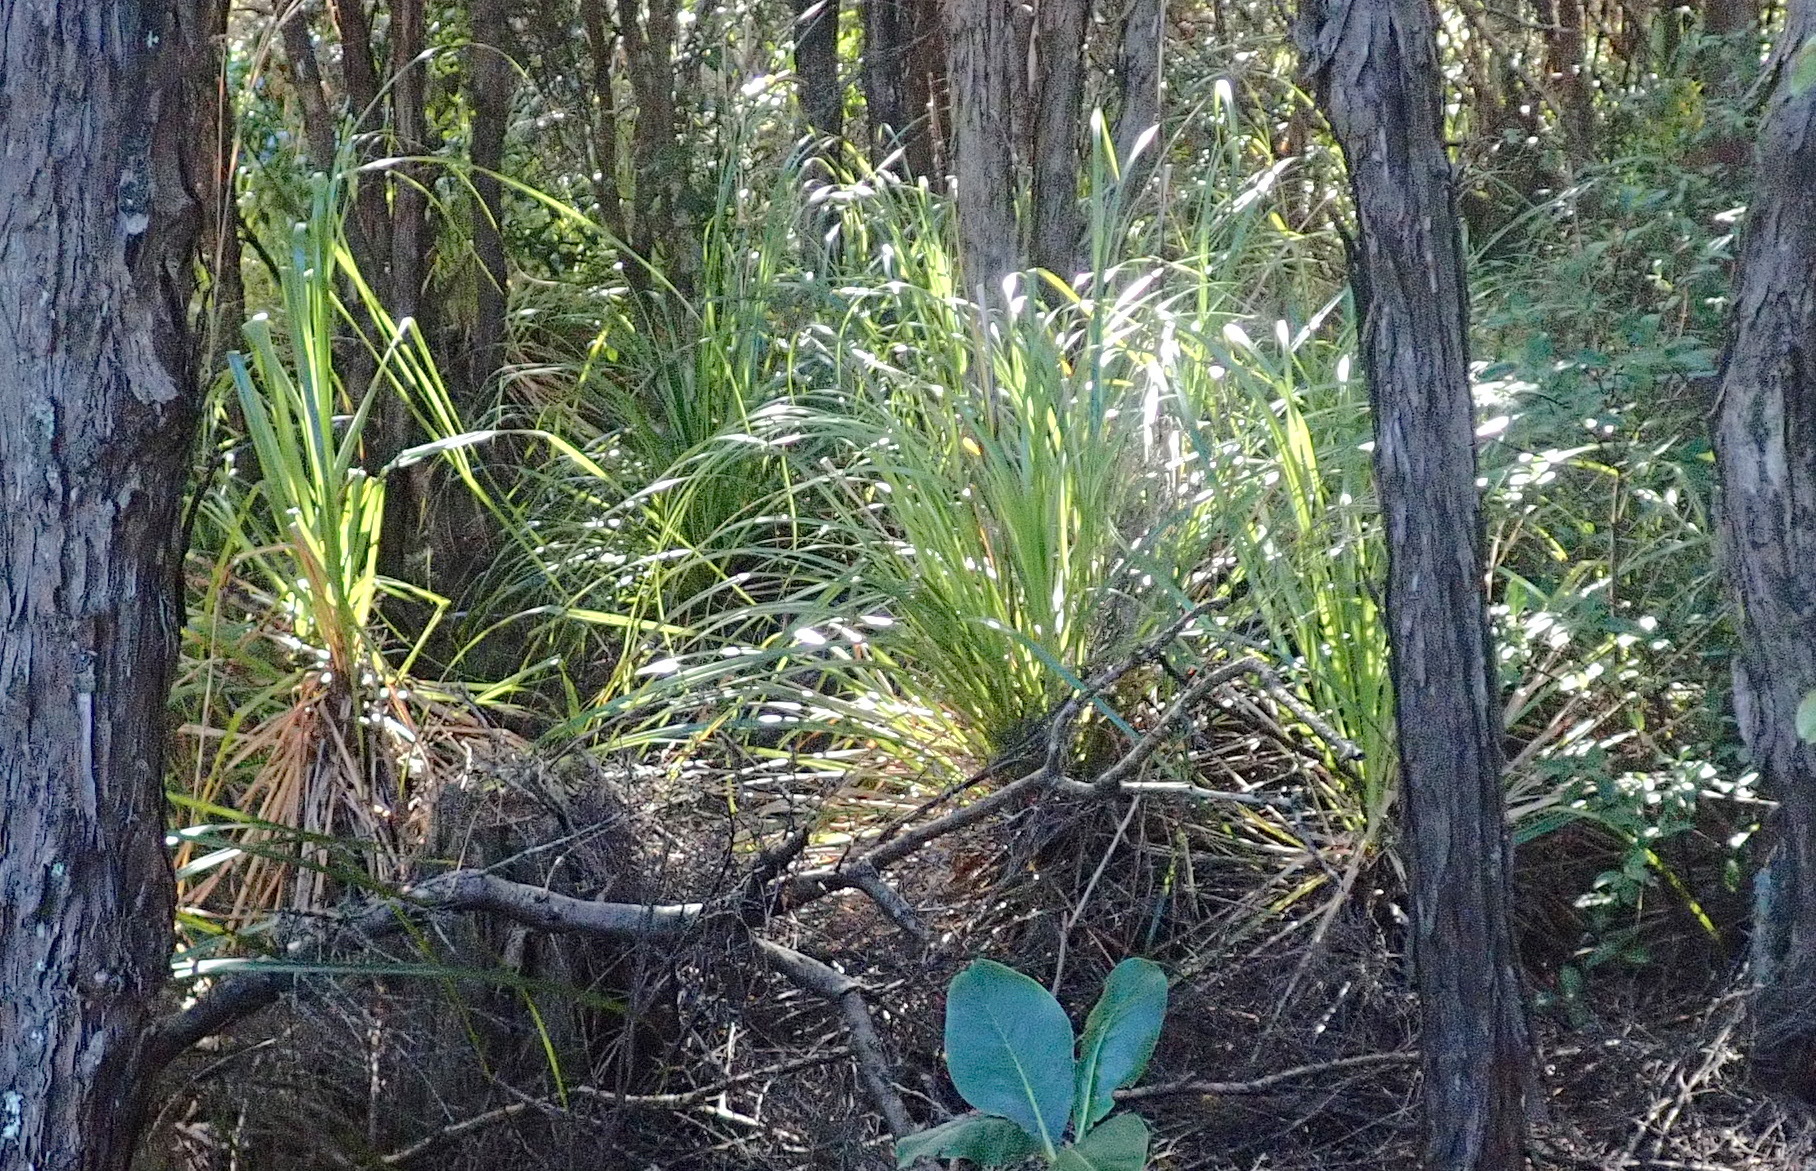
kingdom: Plantae
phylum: Tracheophyta
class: Liliopsida
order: Poales
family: Cyperaceae
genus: Gahnia
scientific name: Gahnia xanthocarpa
